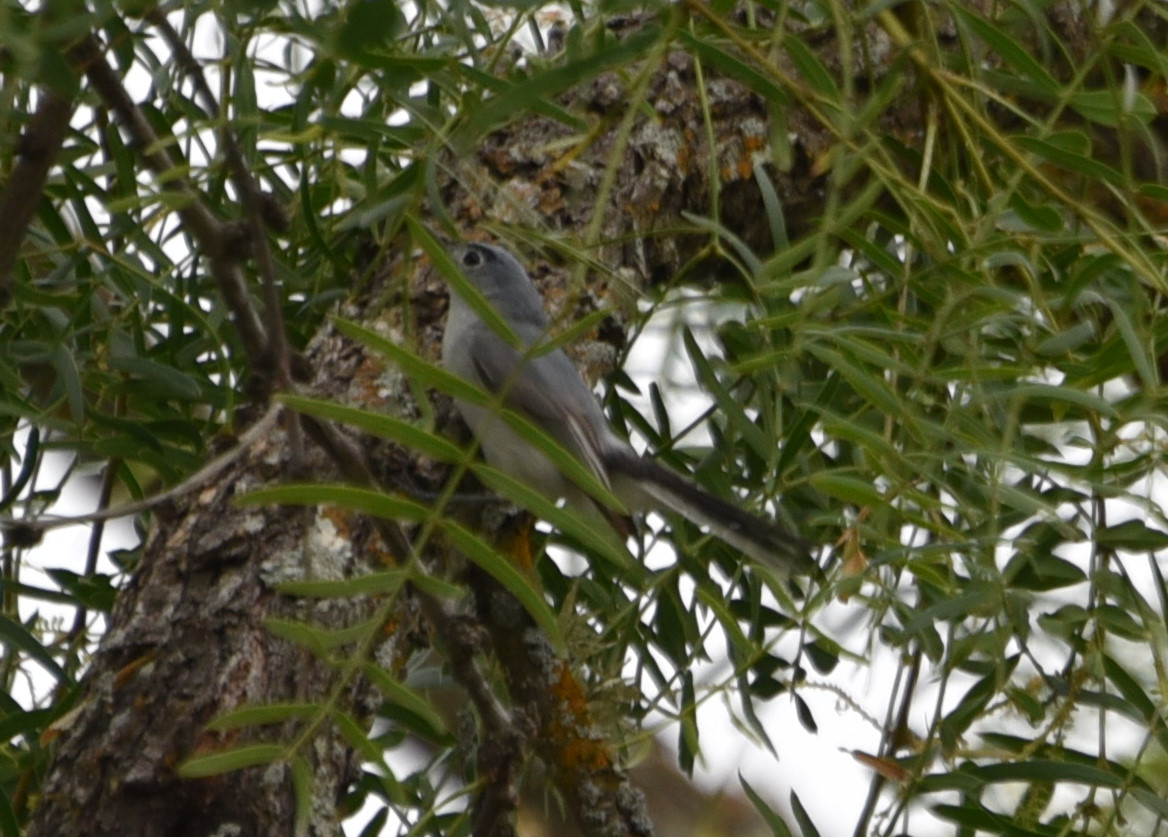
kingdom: Animalia
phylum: Chordata
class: Aves
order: Passeriformes
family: Polioptilidae
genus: Polioptila
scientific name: Polioptila caerulea
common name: Blue-gray gnatcatcher
